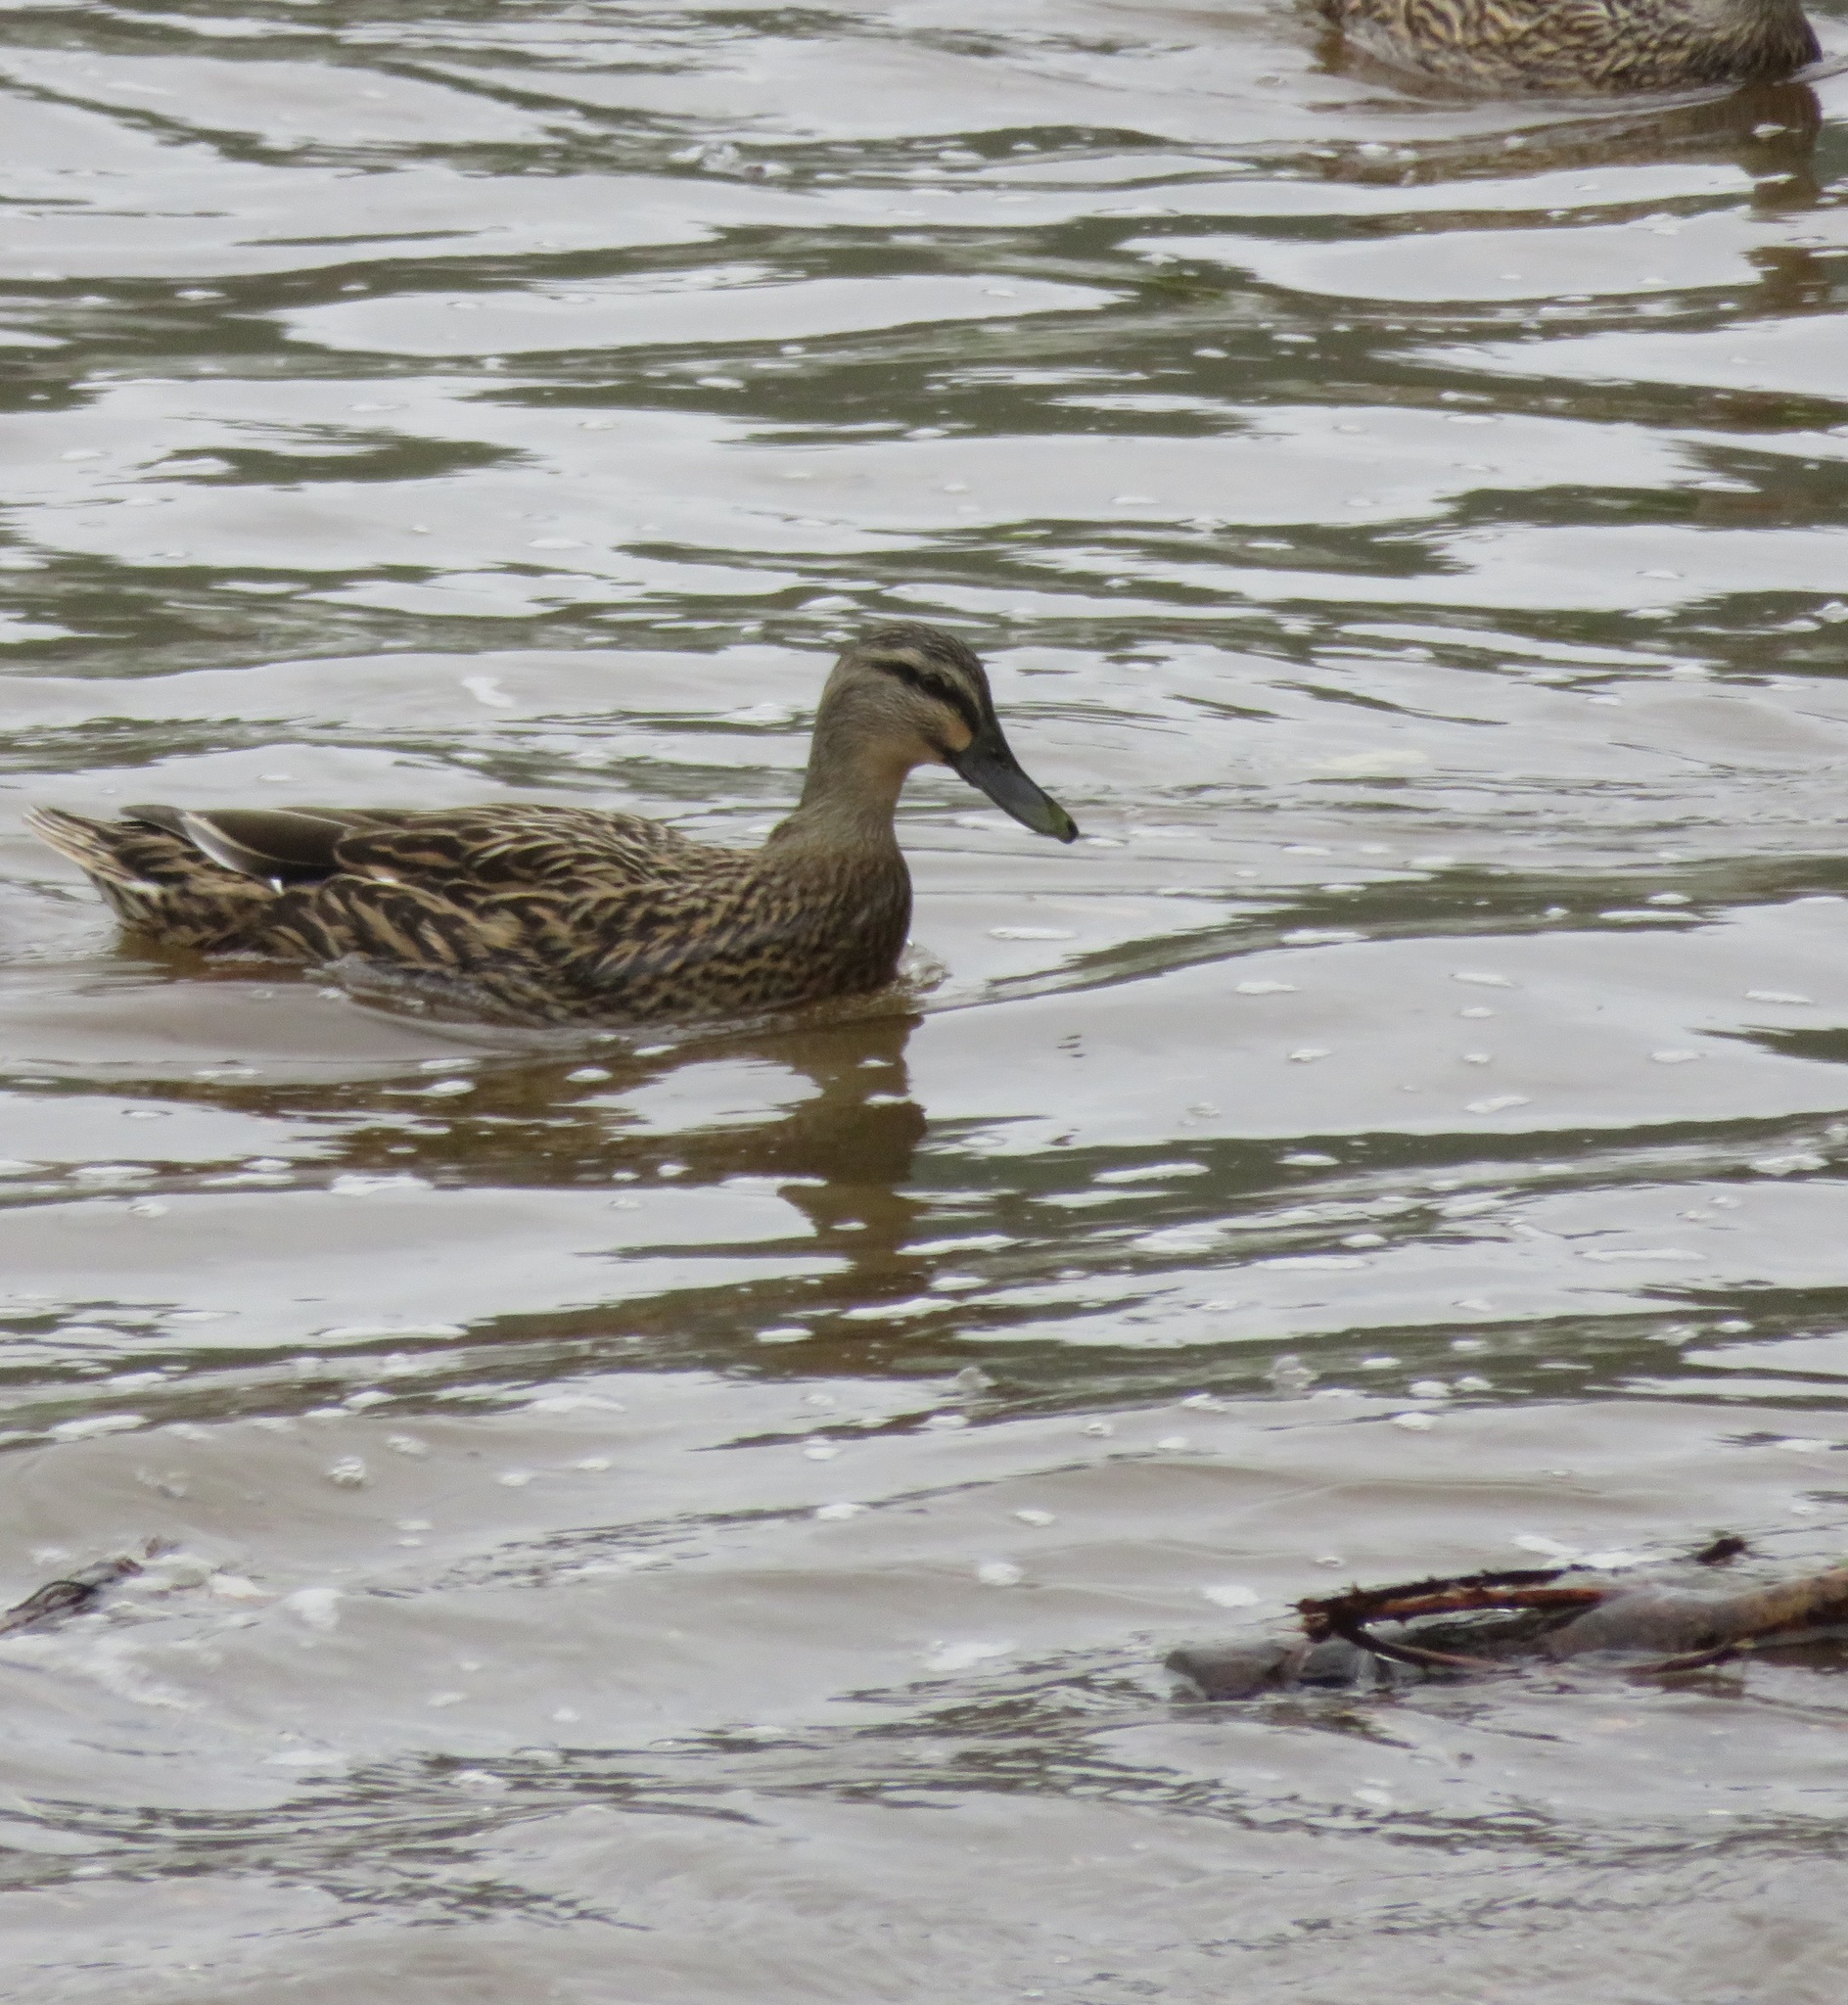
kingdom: Animalia
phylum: Chordata
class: Aves
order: Anseriformes
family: Anatidae
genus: Anas
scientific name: Anas
